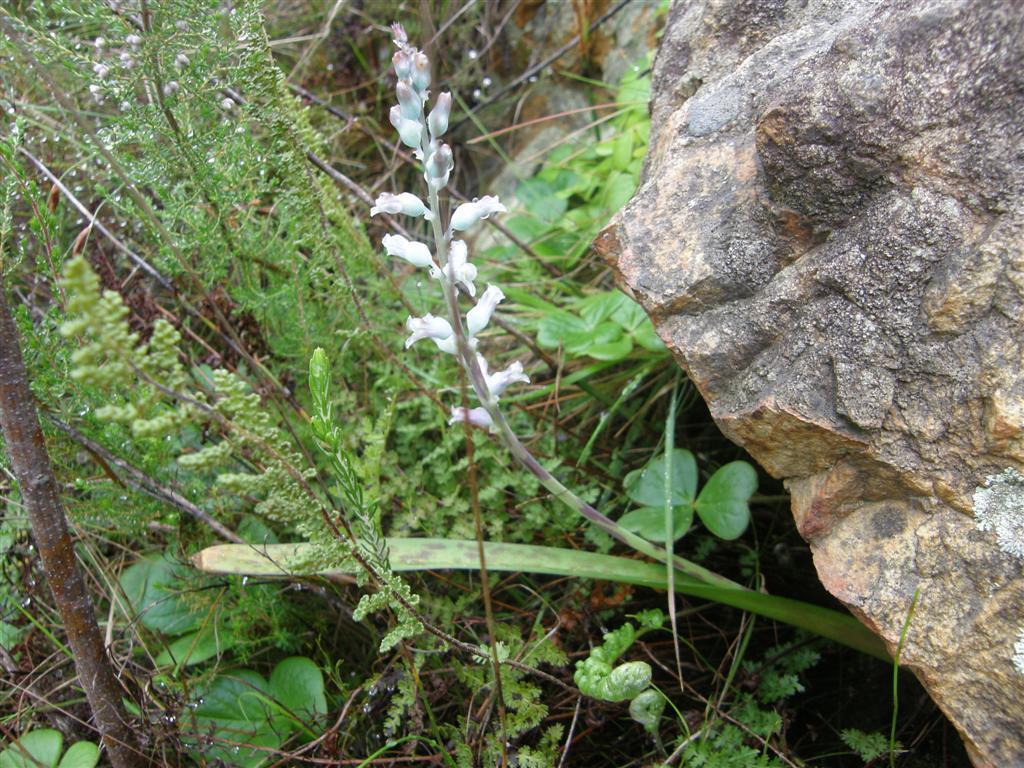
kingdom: Plantae
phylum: Tracheophyta
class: Liliopsida
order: Asparagales
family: Asparagaceae
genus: Lachenalia
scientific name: Lachenalia judithiae
